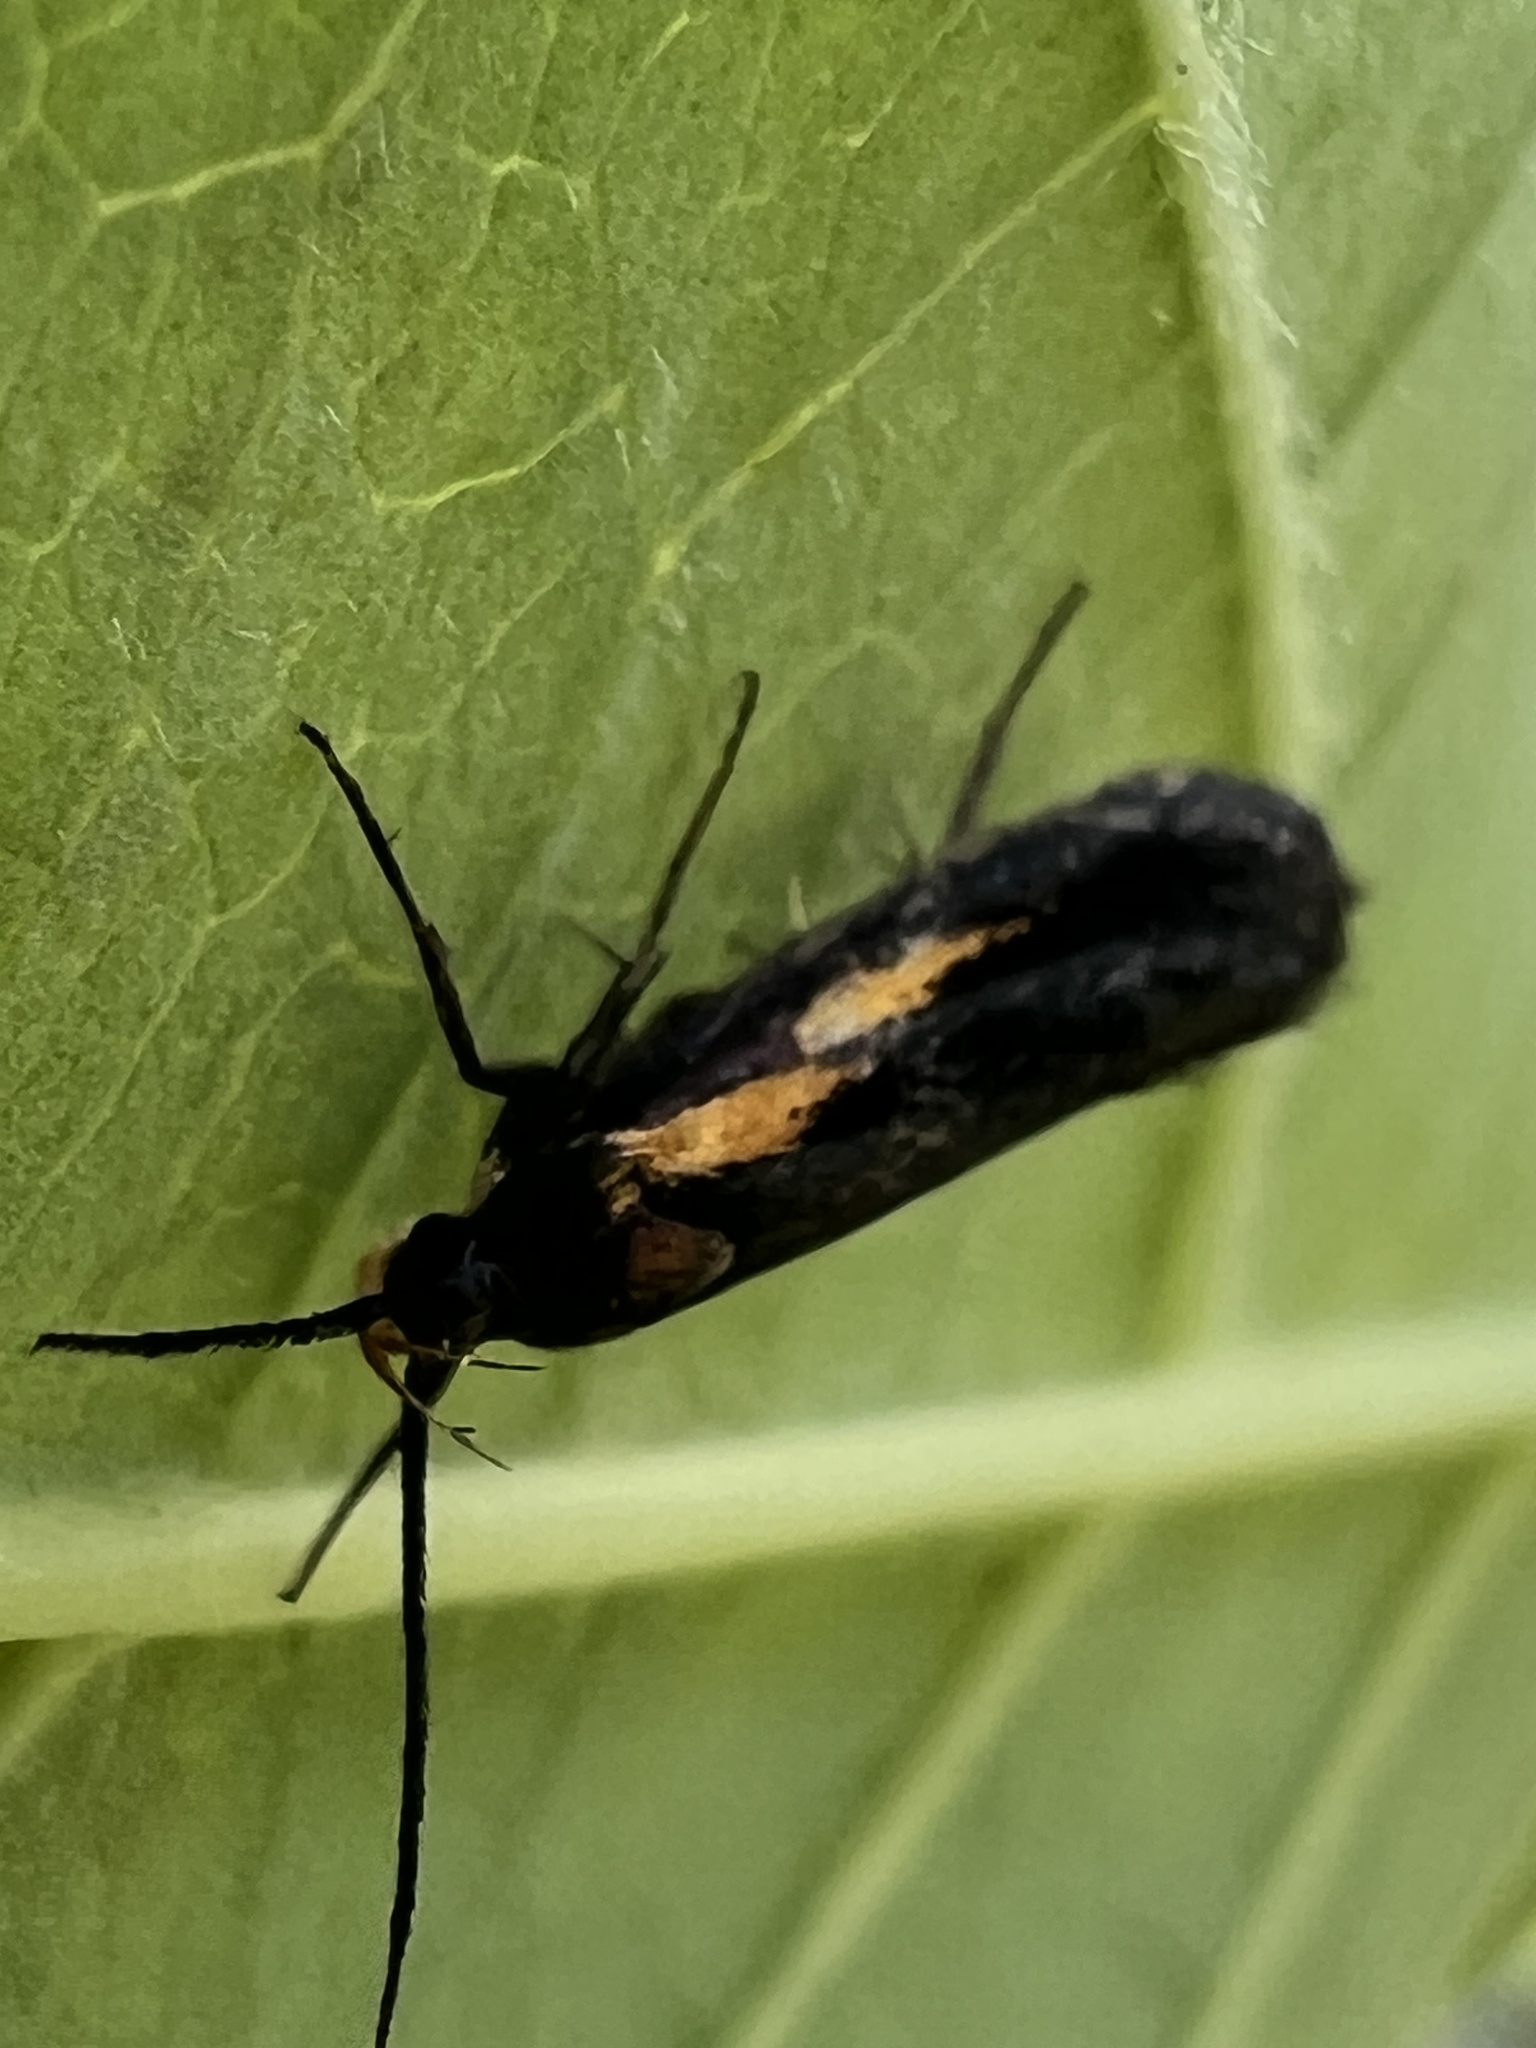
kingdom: Animalia
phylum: Arthropoda
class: Insecta
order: Lepidoptera
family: Oecophoridae
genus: Mathildana
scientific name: Mathildana newmanella
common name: Newman's mathildana moth
